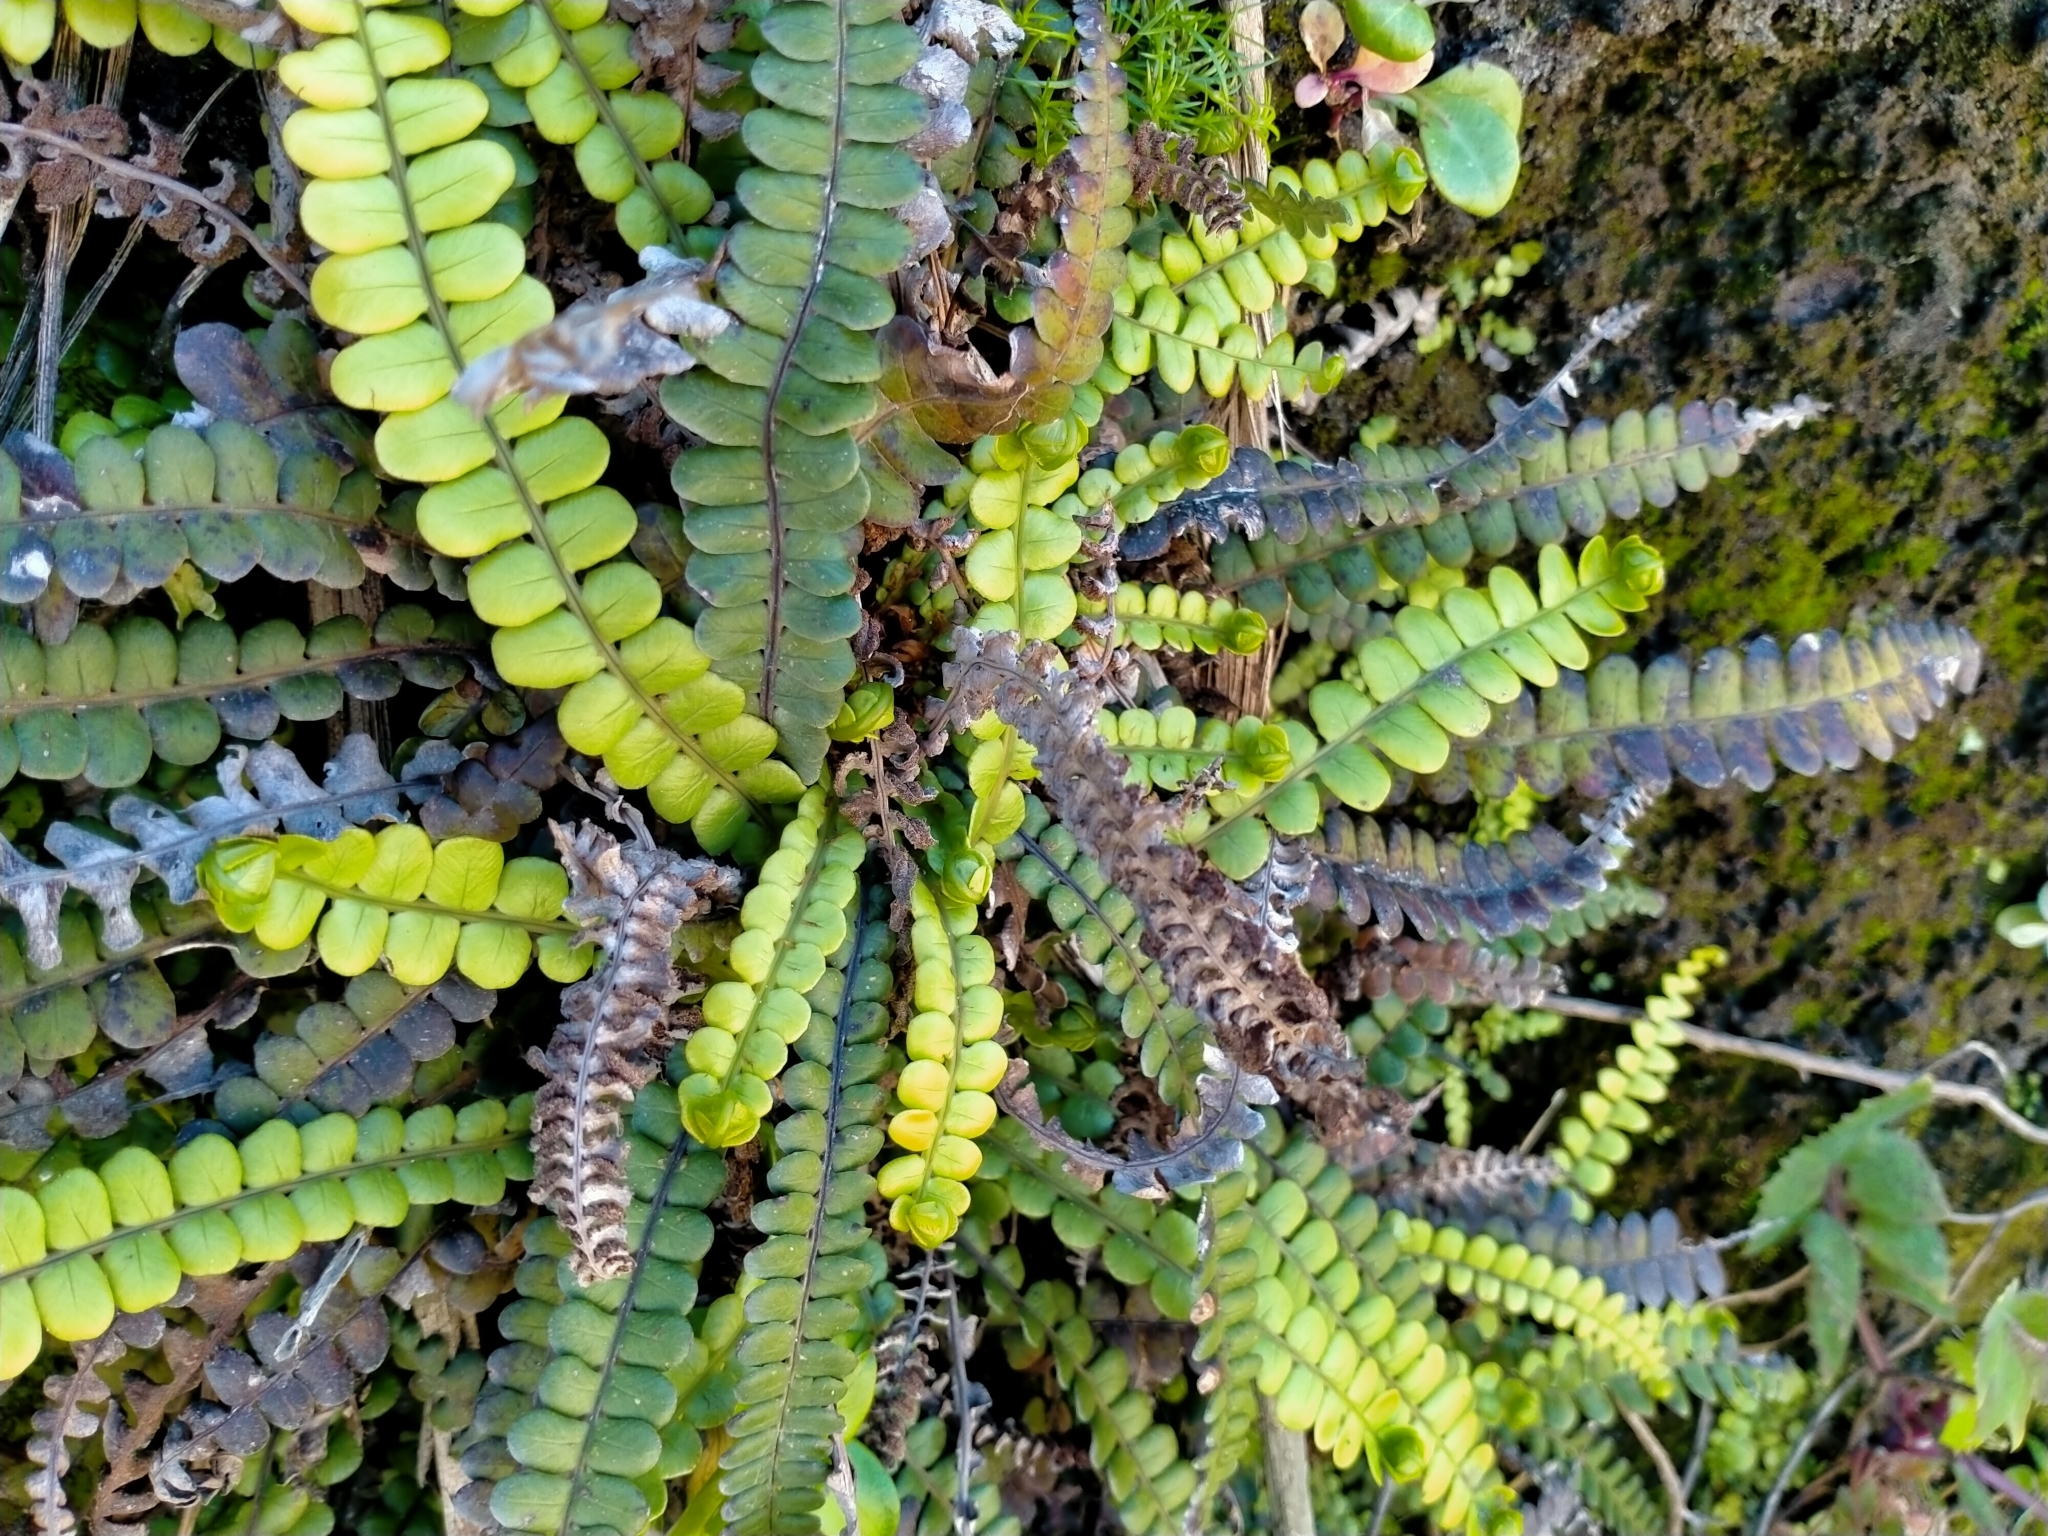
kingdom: Plantae
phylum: Tracheophyta
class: Polypodiopsida
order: Polypodiales
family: Blechnaceae
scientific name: Blechnaceae
